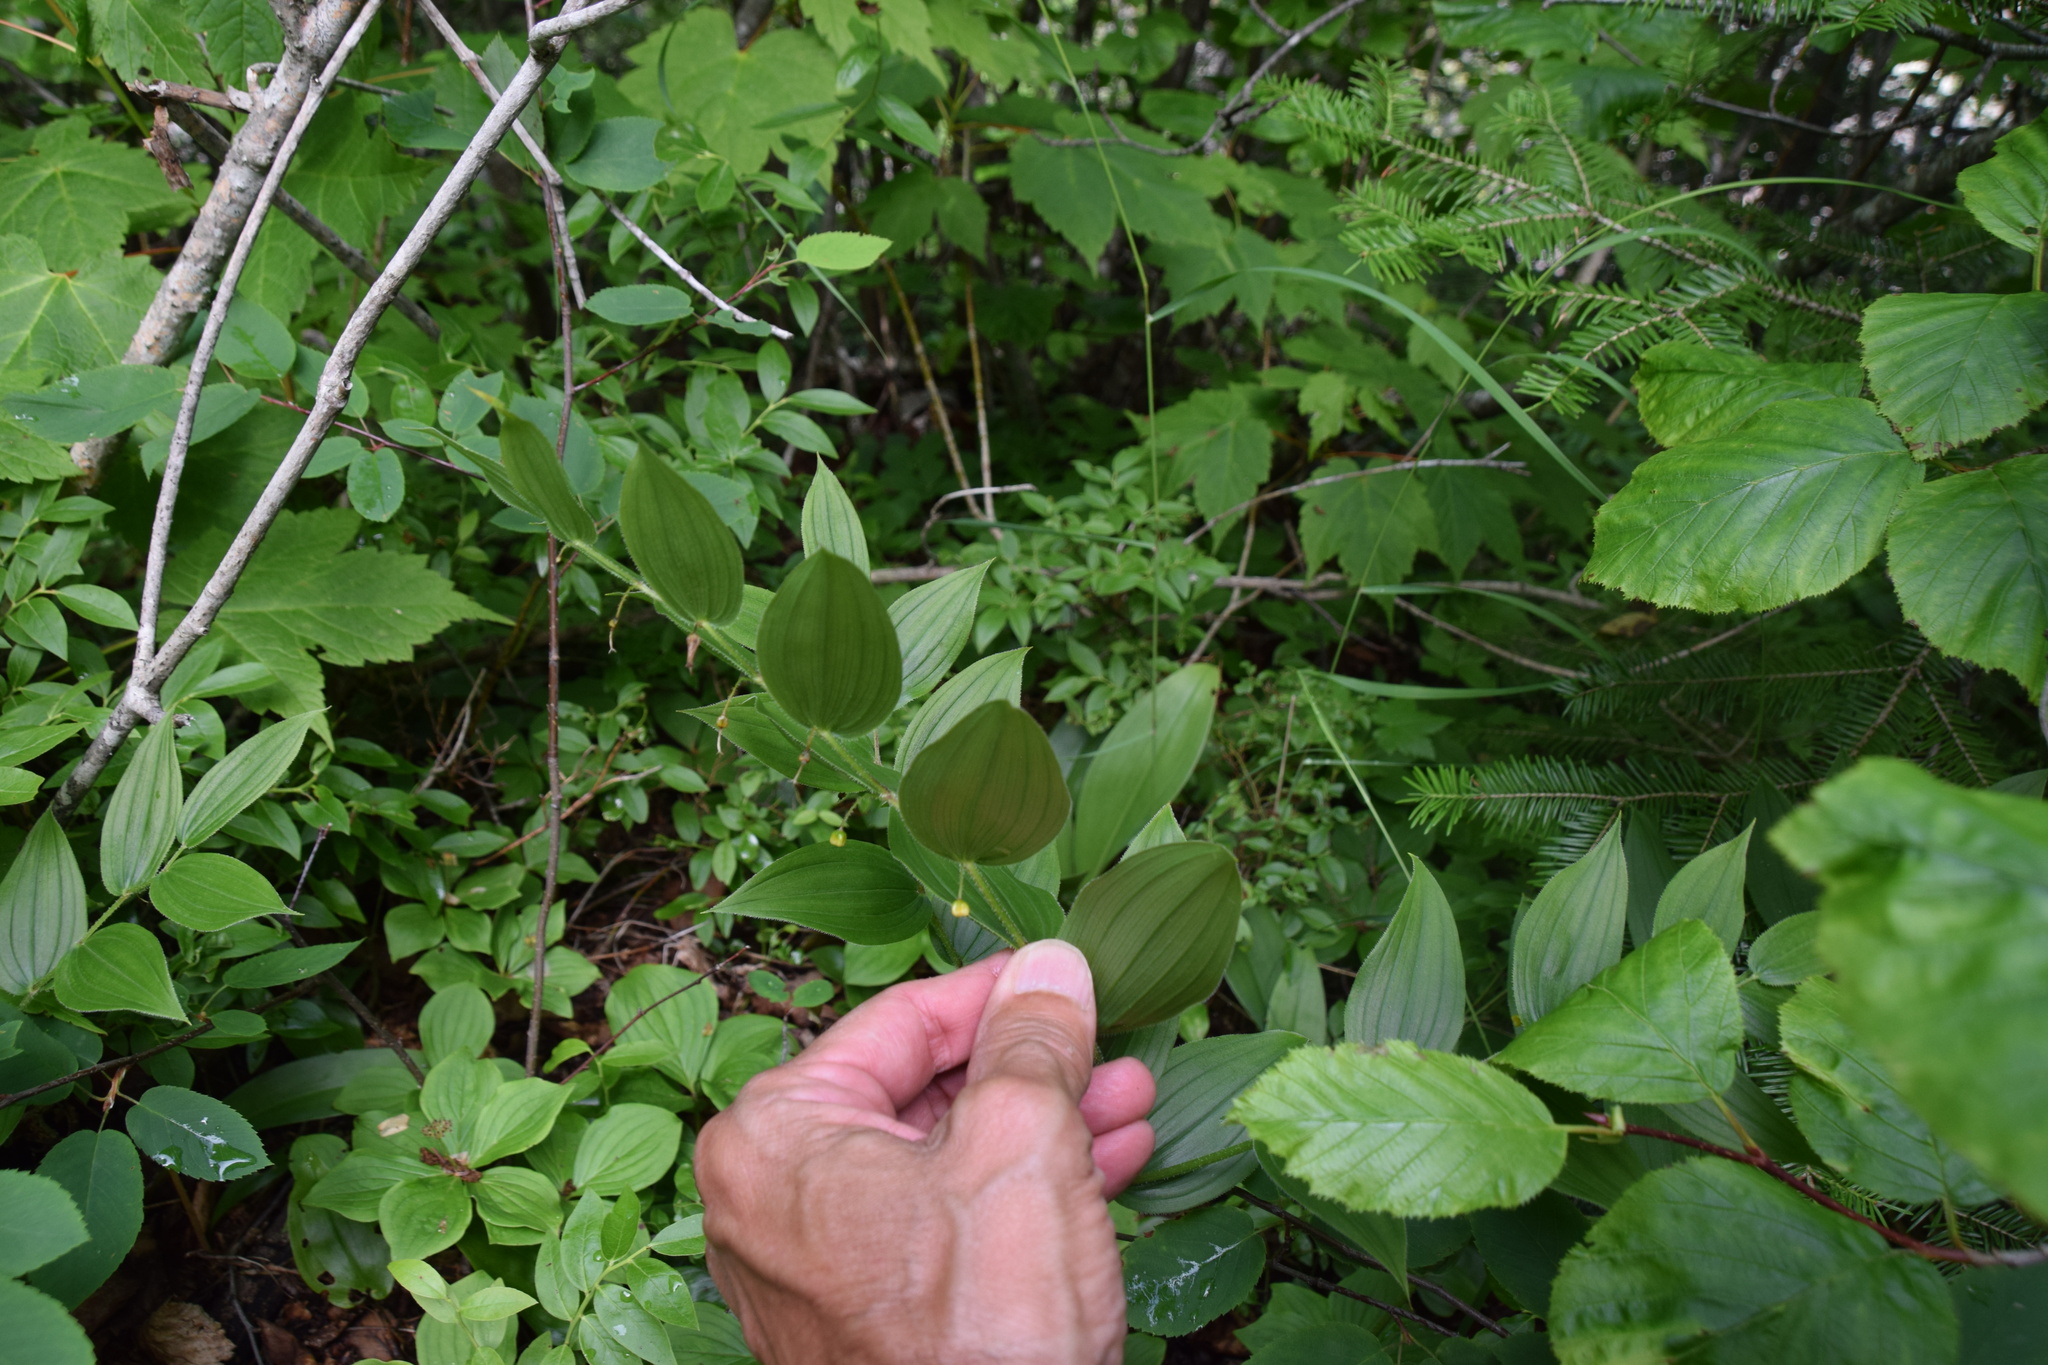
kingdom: Plantae
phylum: Tracheophyta
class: Liliopsida
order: Liliales
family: Liliaceae
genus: Streptopus
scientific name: Streptopus lanceolatus
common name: Rose mandarin
